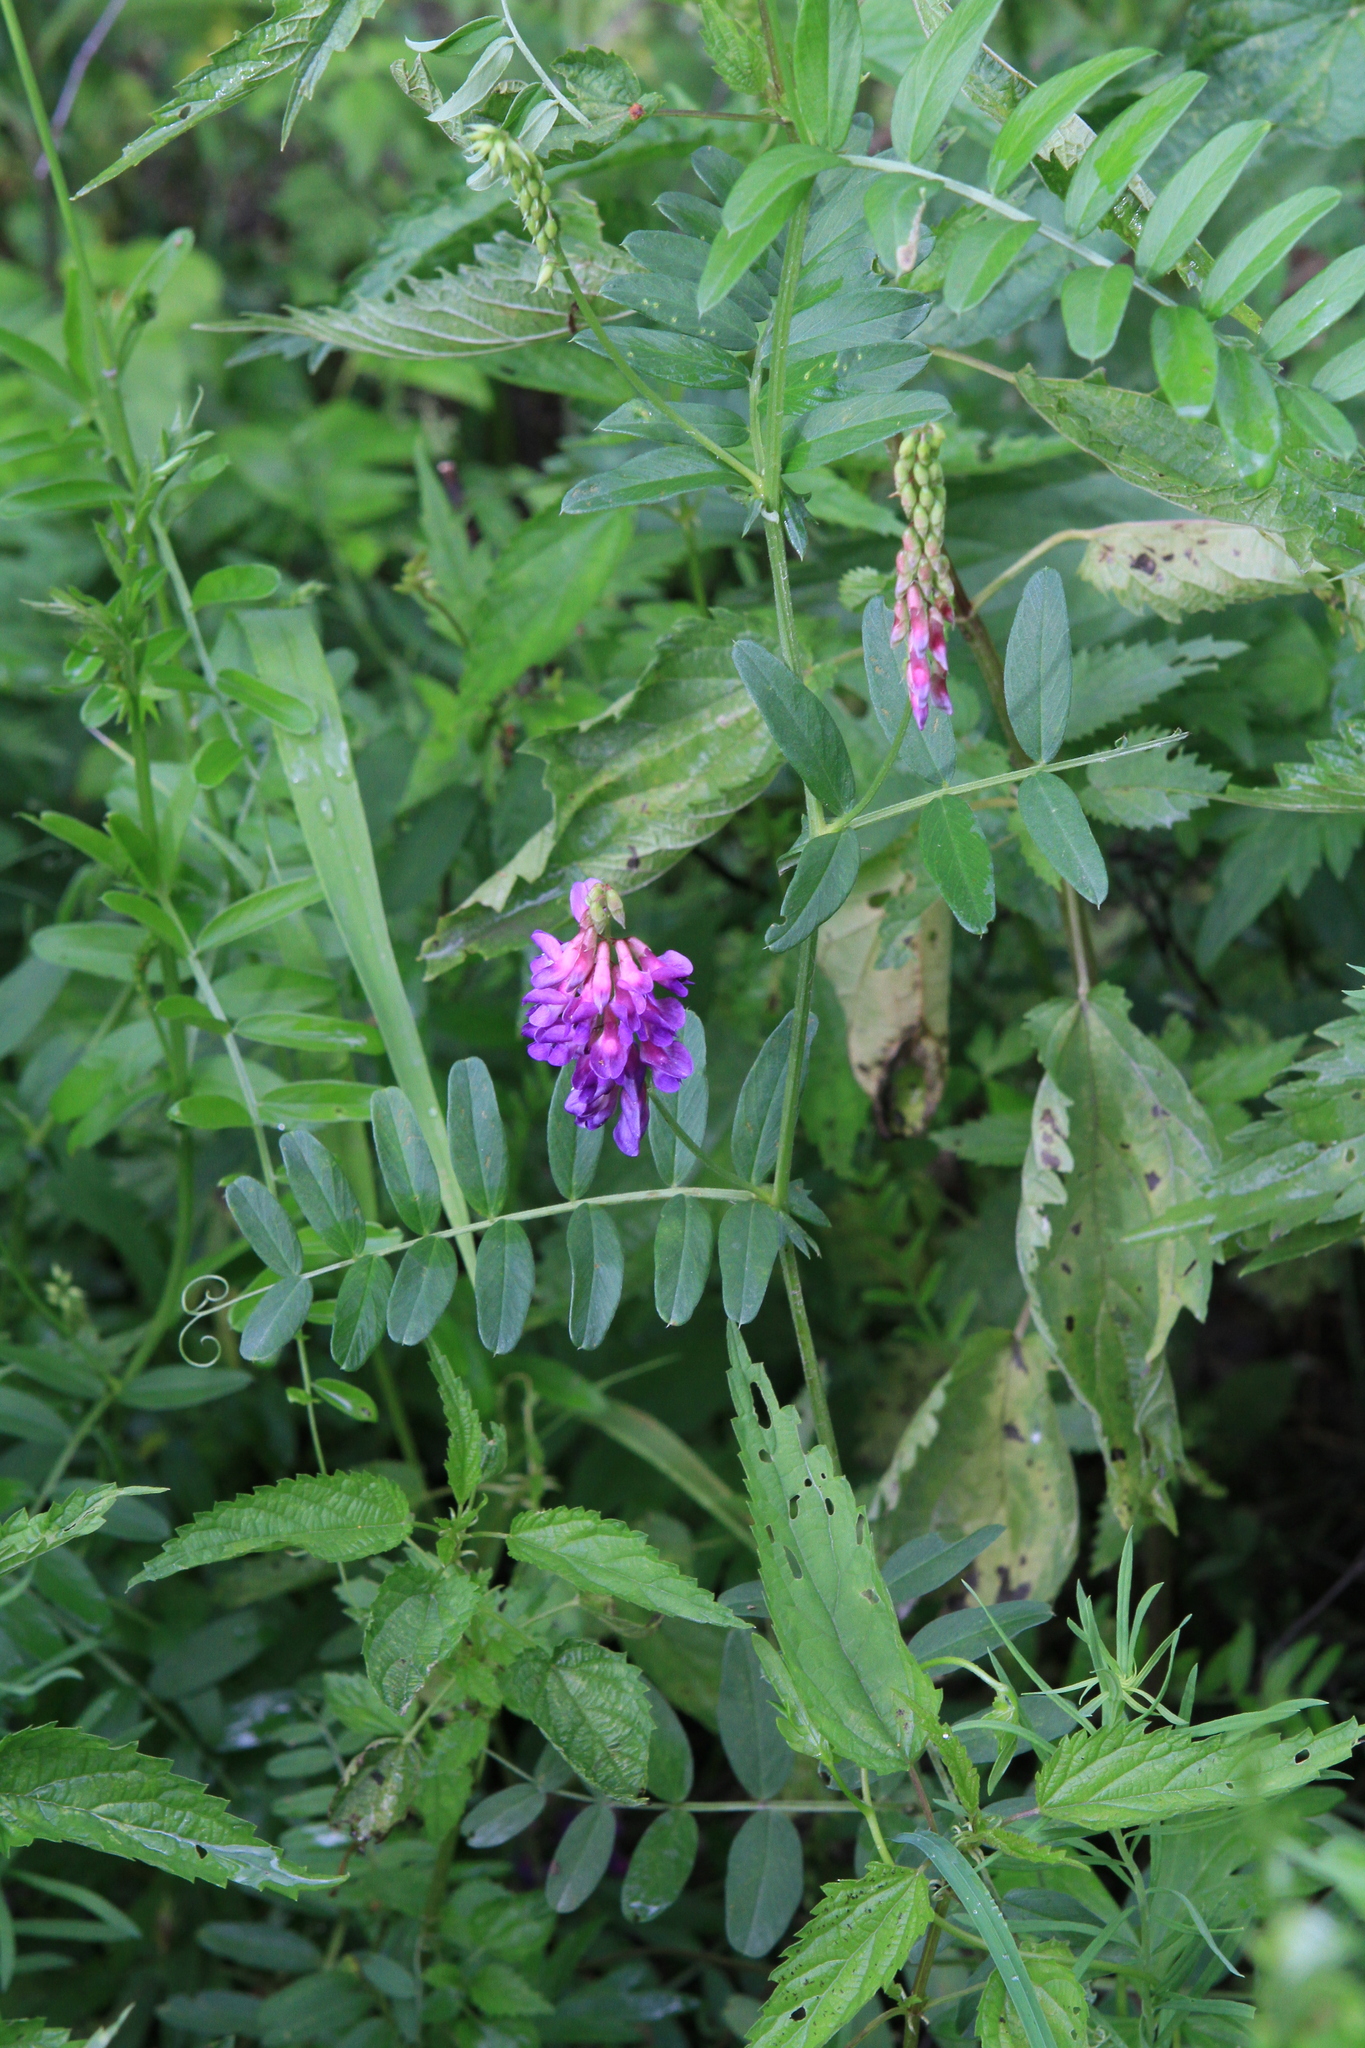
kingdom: Plantae
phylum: Tracheophyta
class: Magnoliopsida
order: Fabales
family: Fabaceae
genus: Vicia
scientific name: Vicia amoena
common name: Cheder ebs
